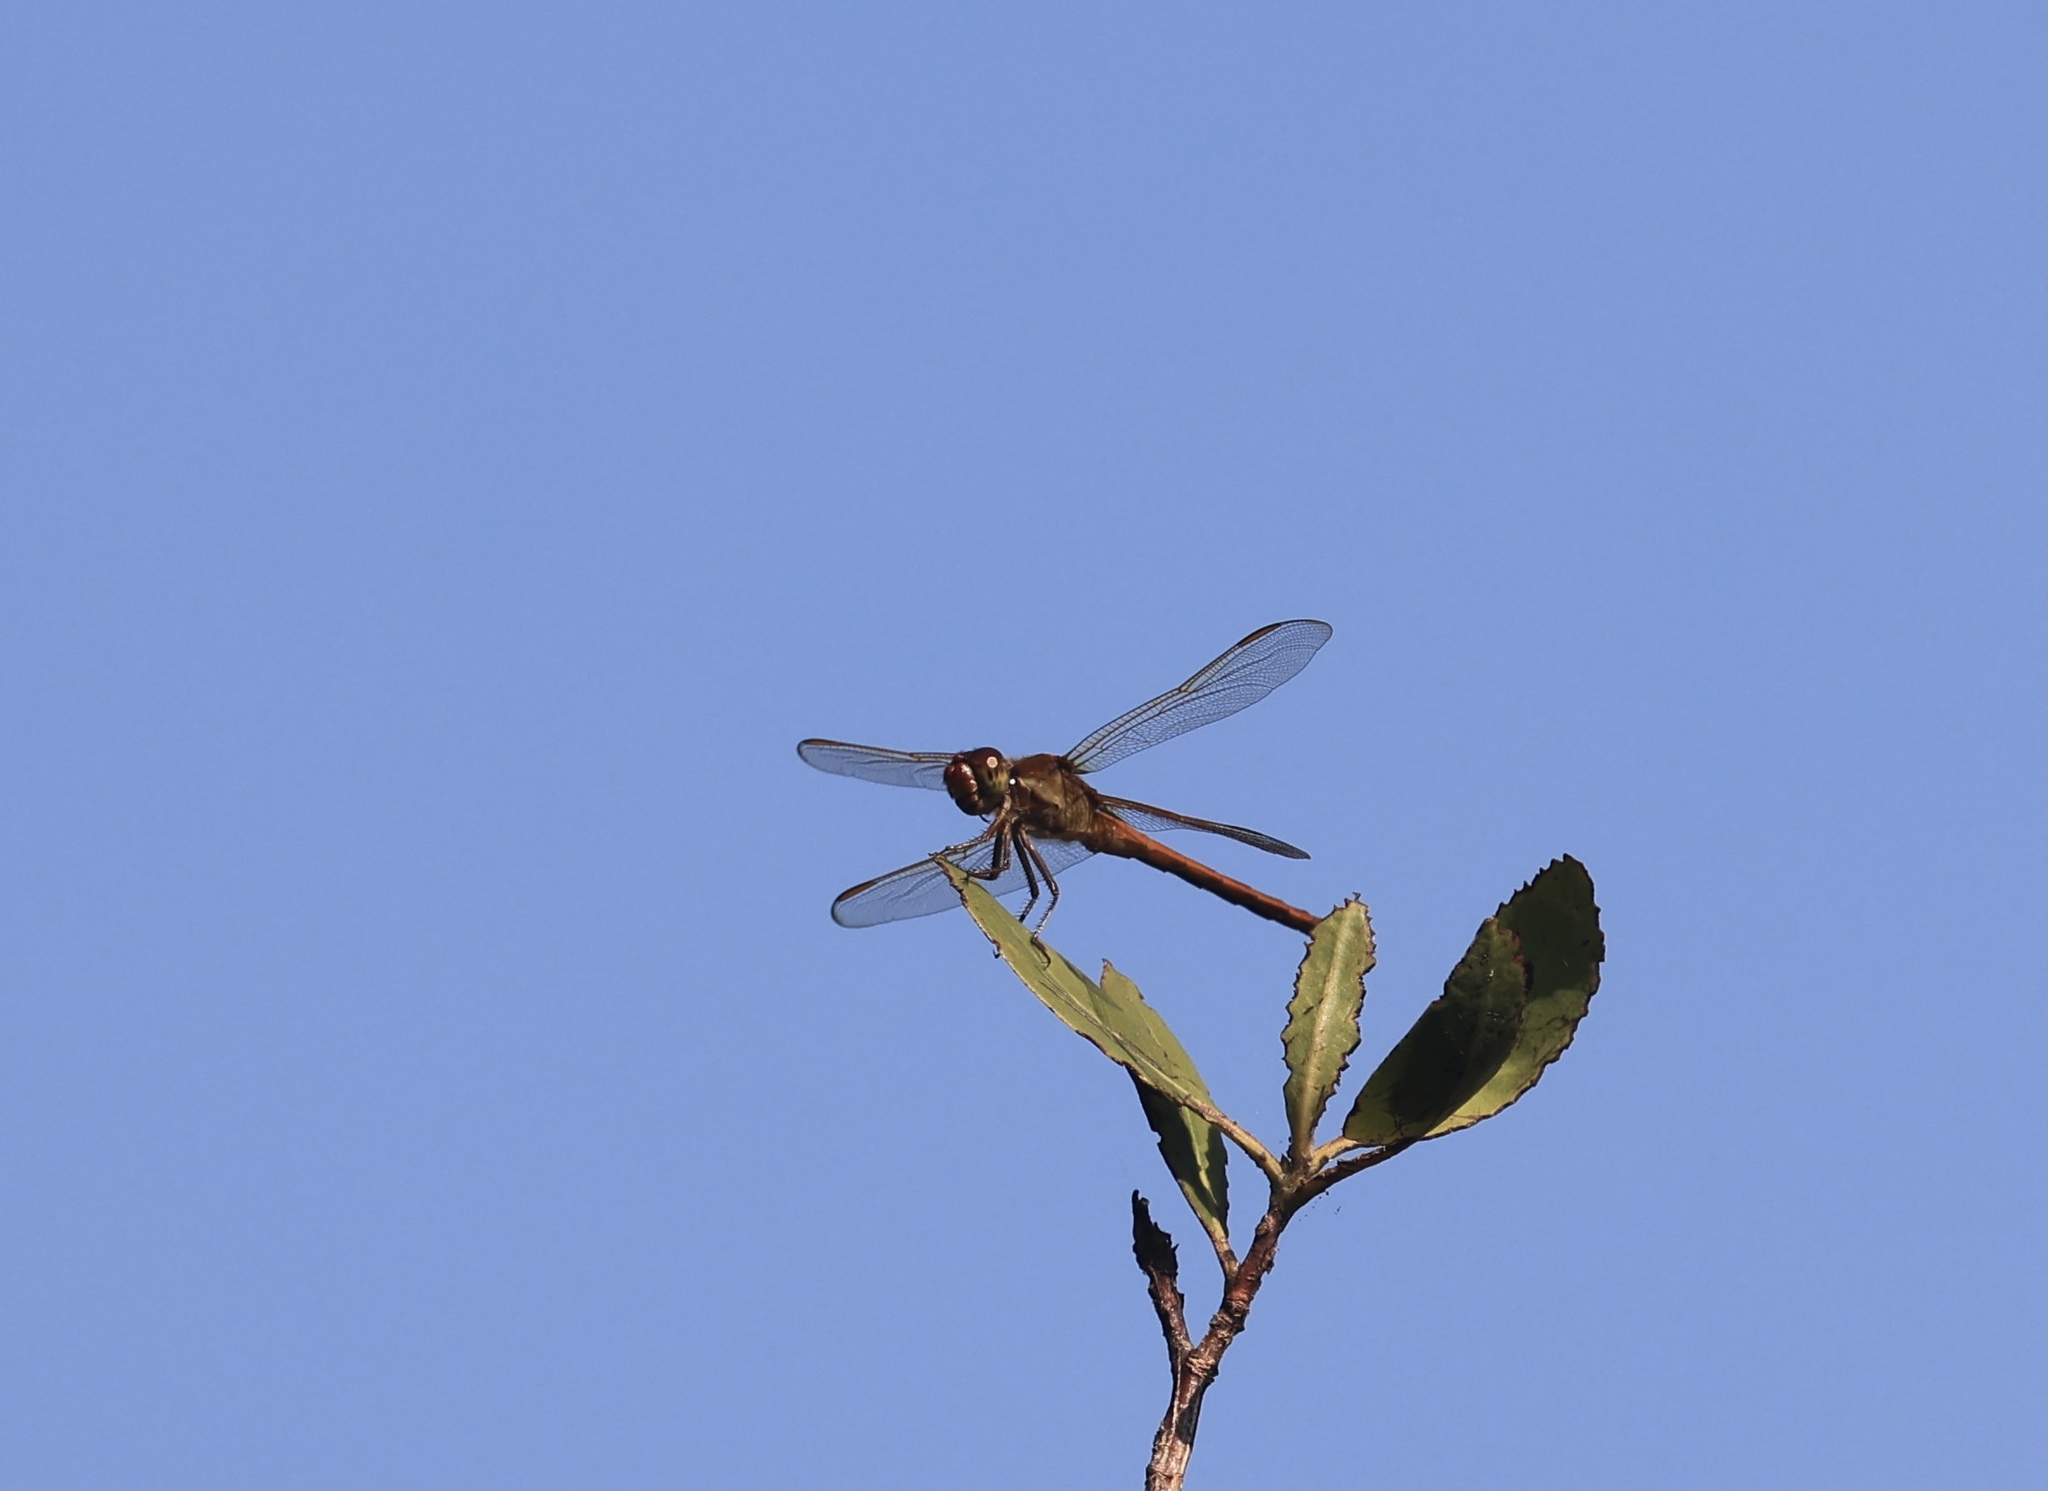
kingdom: Animalia
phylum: Arthropoda
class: Insecta
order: Odonata
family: Libellulidae
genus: Libellula
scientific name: Libellula needhami
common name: Needham's skimmer
